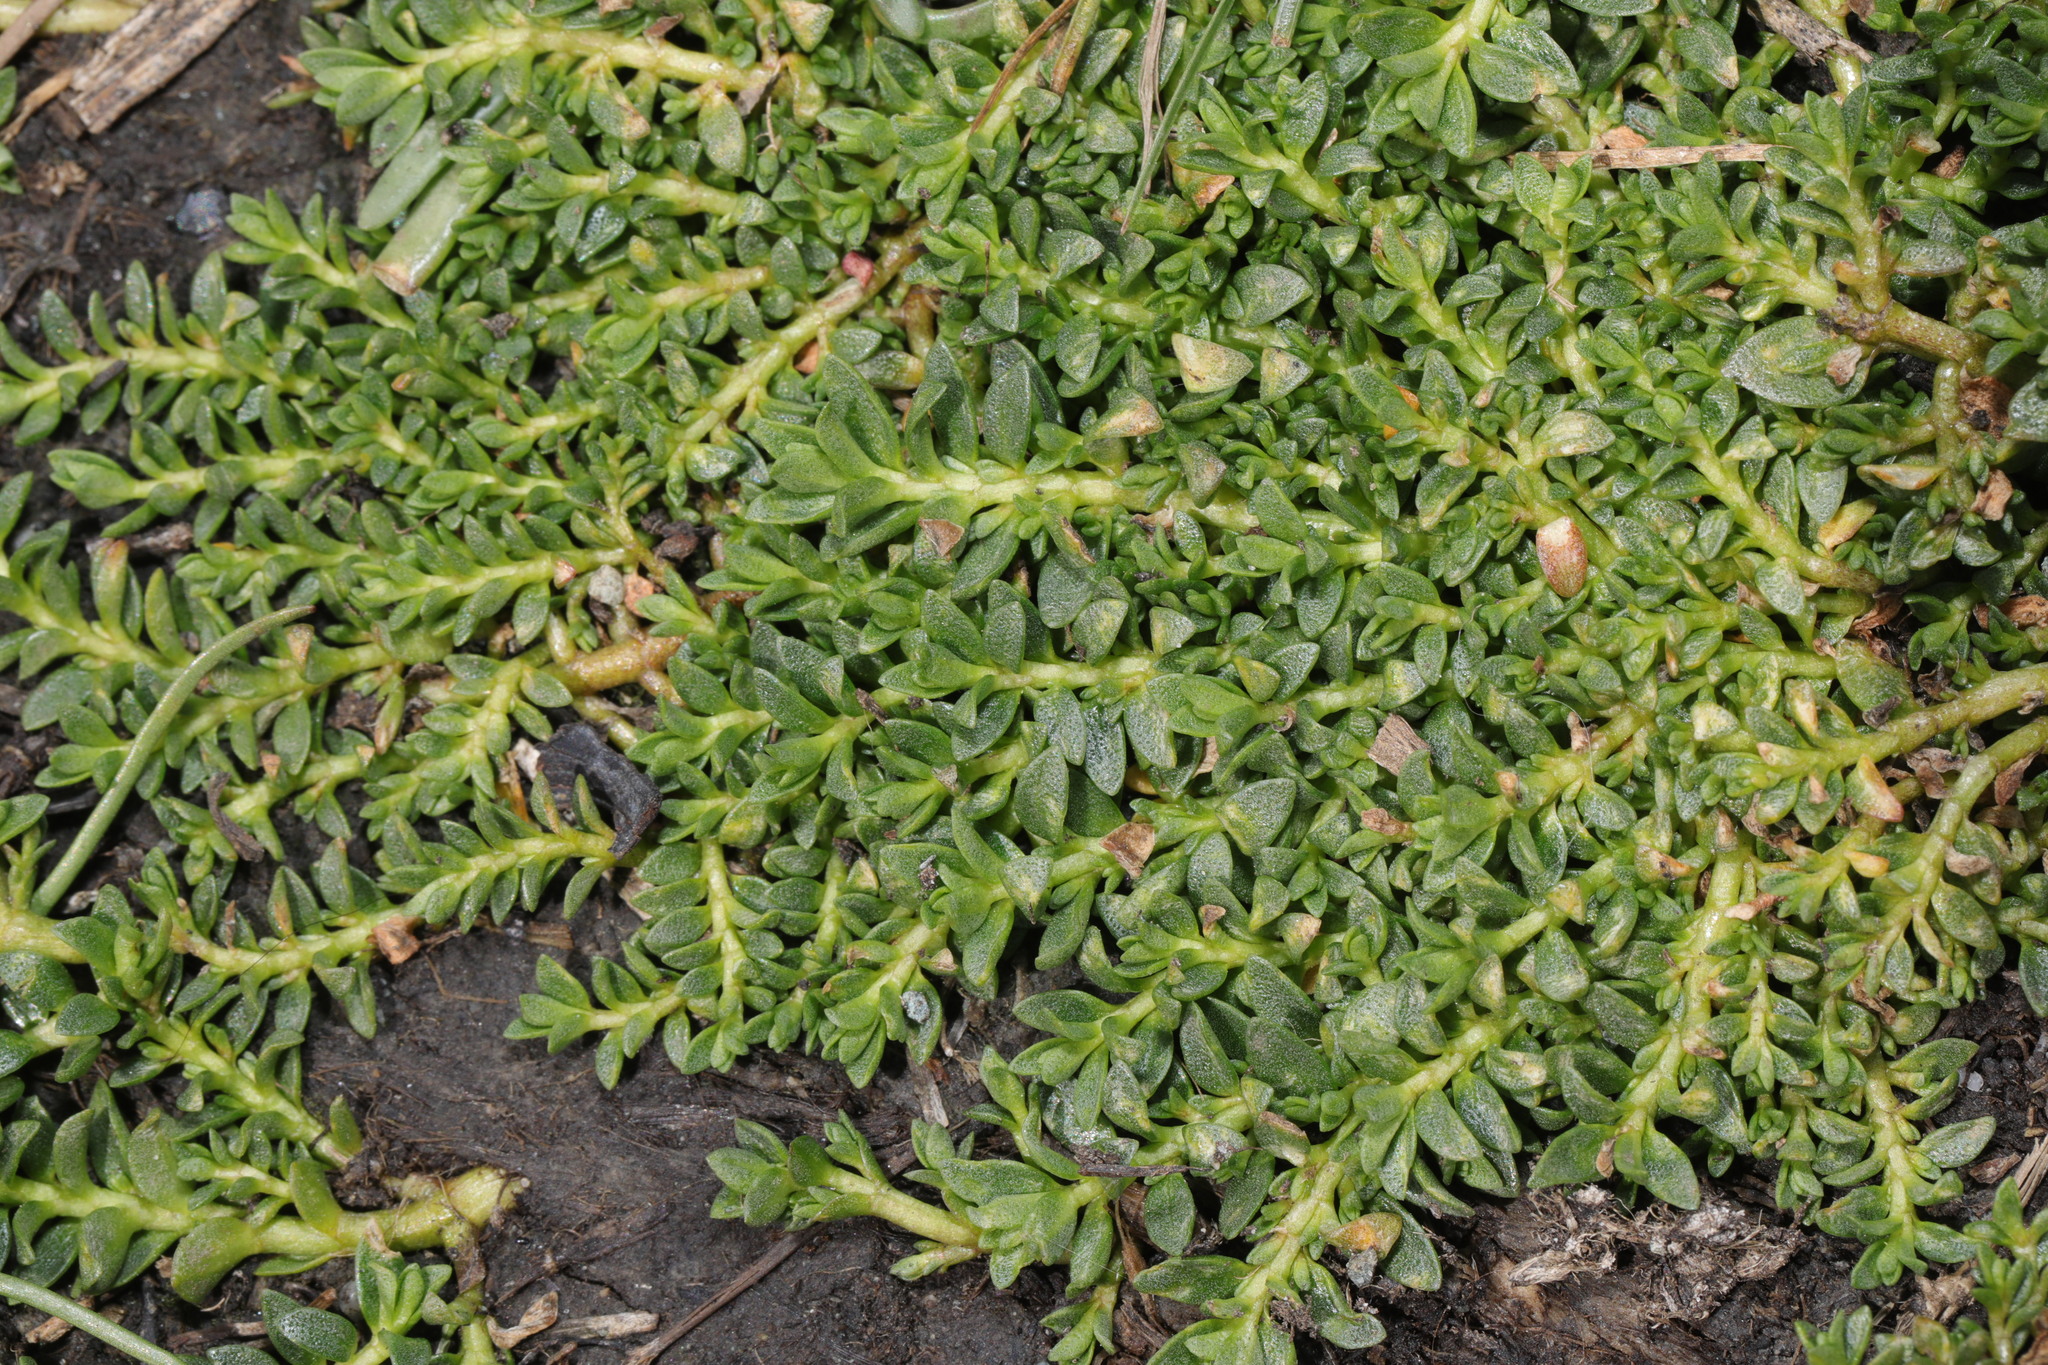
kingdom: Plantae
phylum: Tracheophyta
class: Magnoliopsida
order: Ericales
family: Primulaceae
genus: Lysimachia
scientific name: Lysimachia maritima
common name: Sea milkwort
